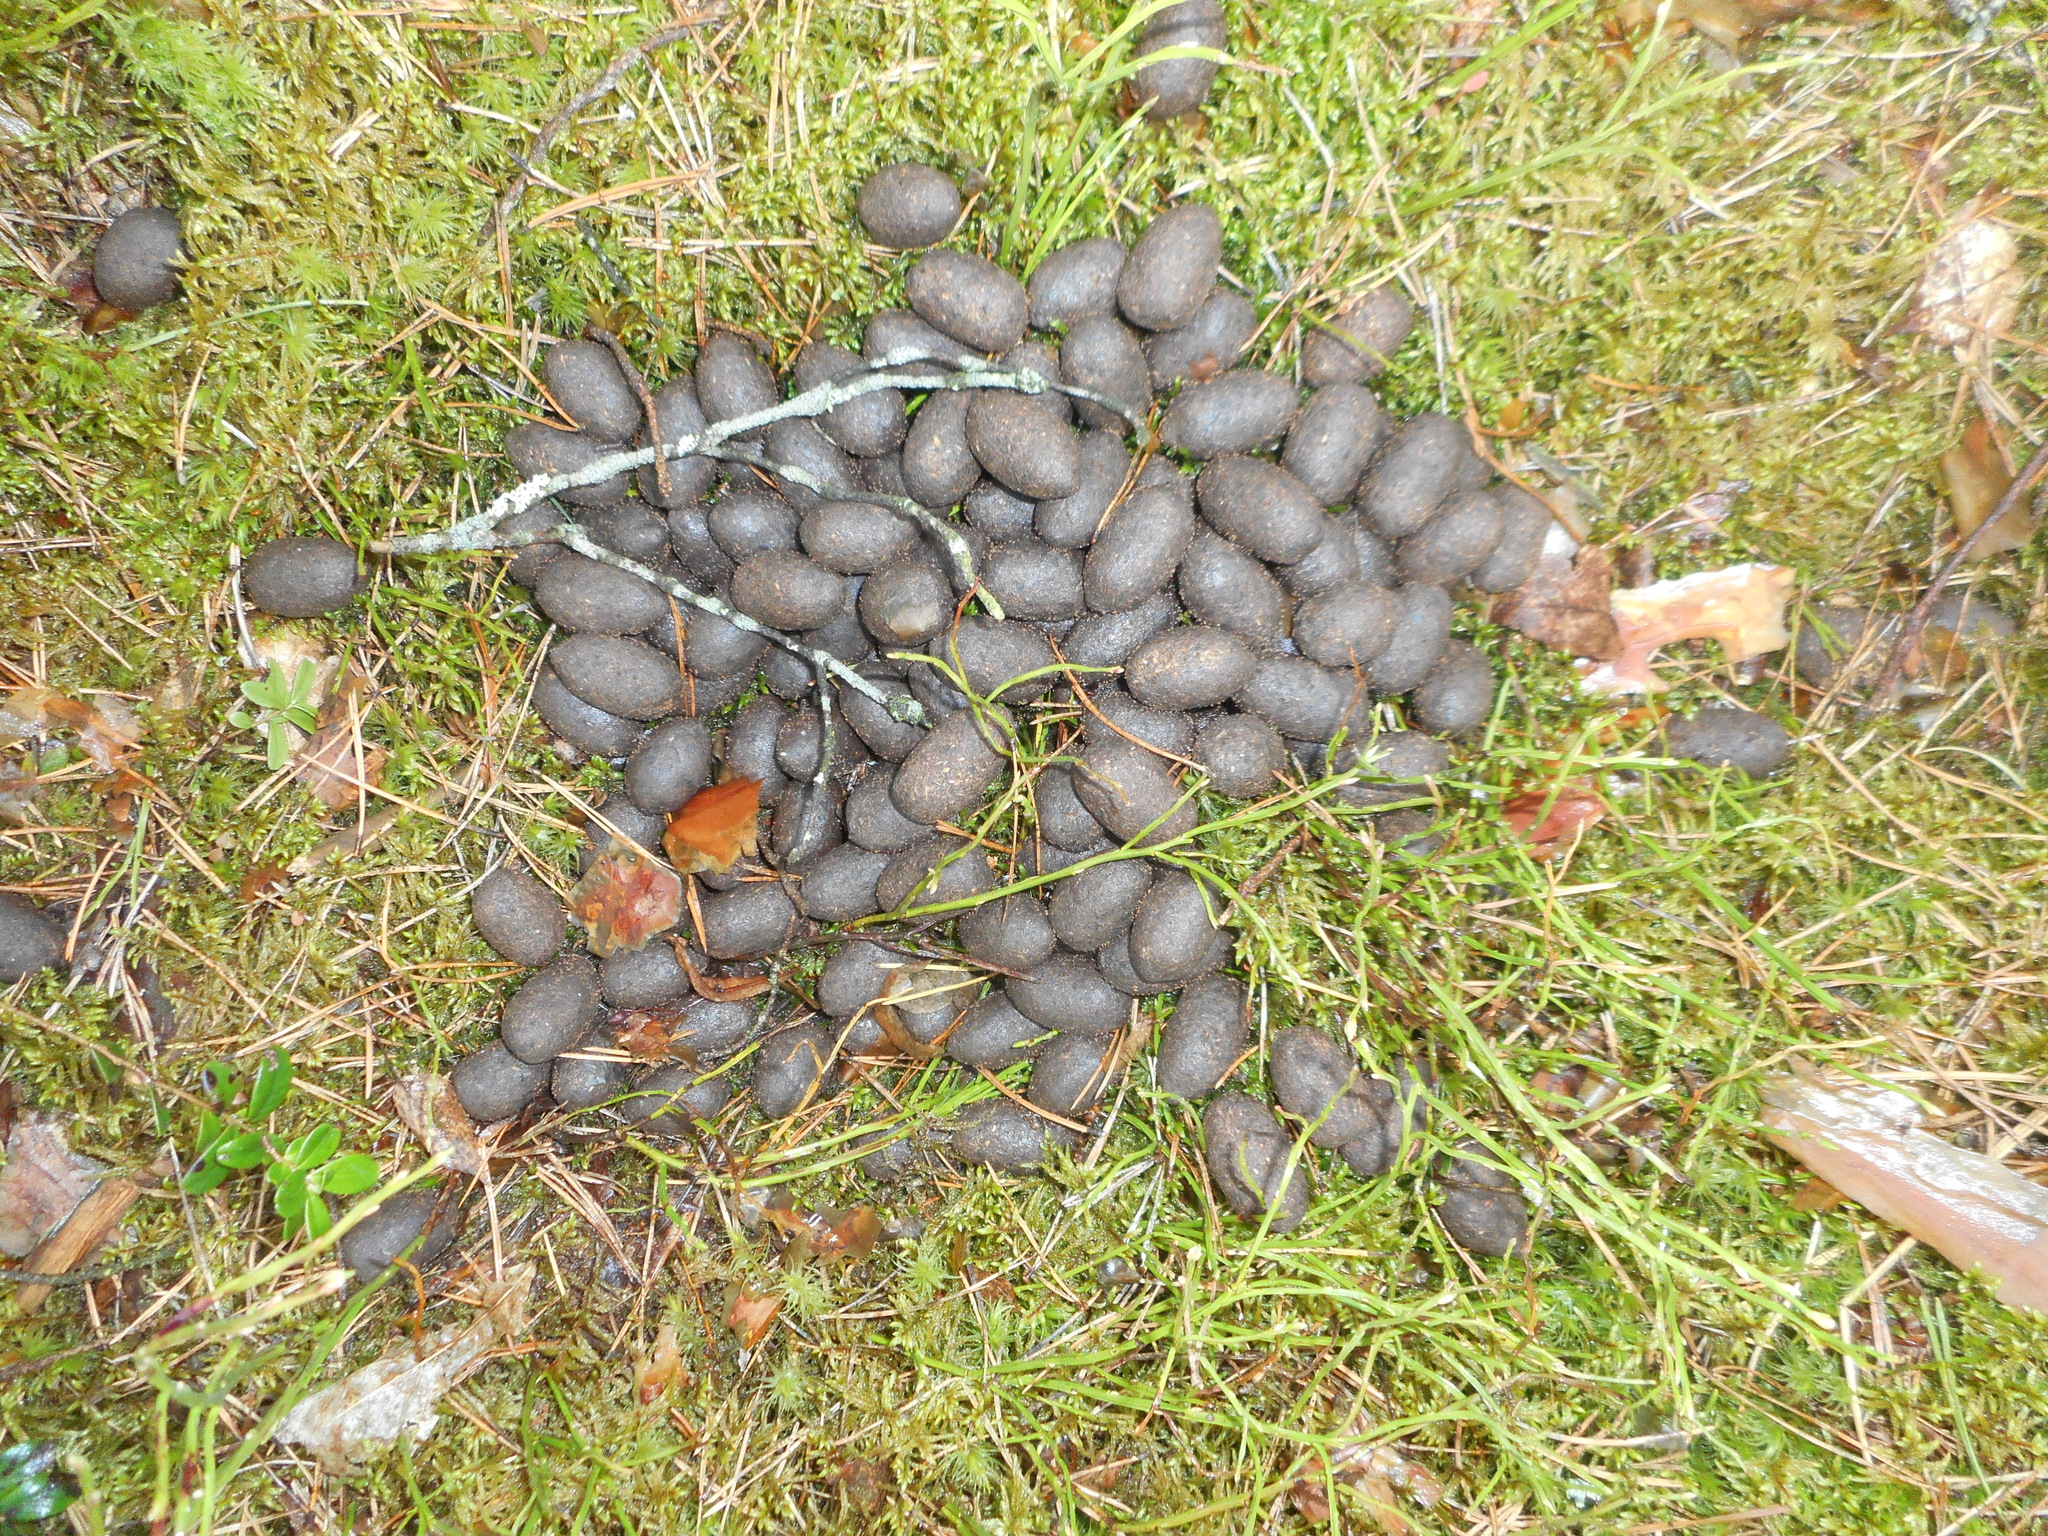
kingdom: Animalia
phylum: Chordata
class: Mammalia
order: Artiodactyla
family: Cervidae
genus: Alces
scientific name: Alces alces
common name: Moose
